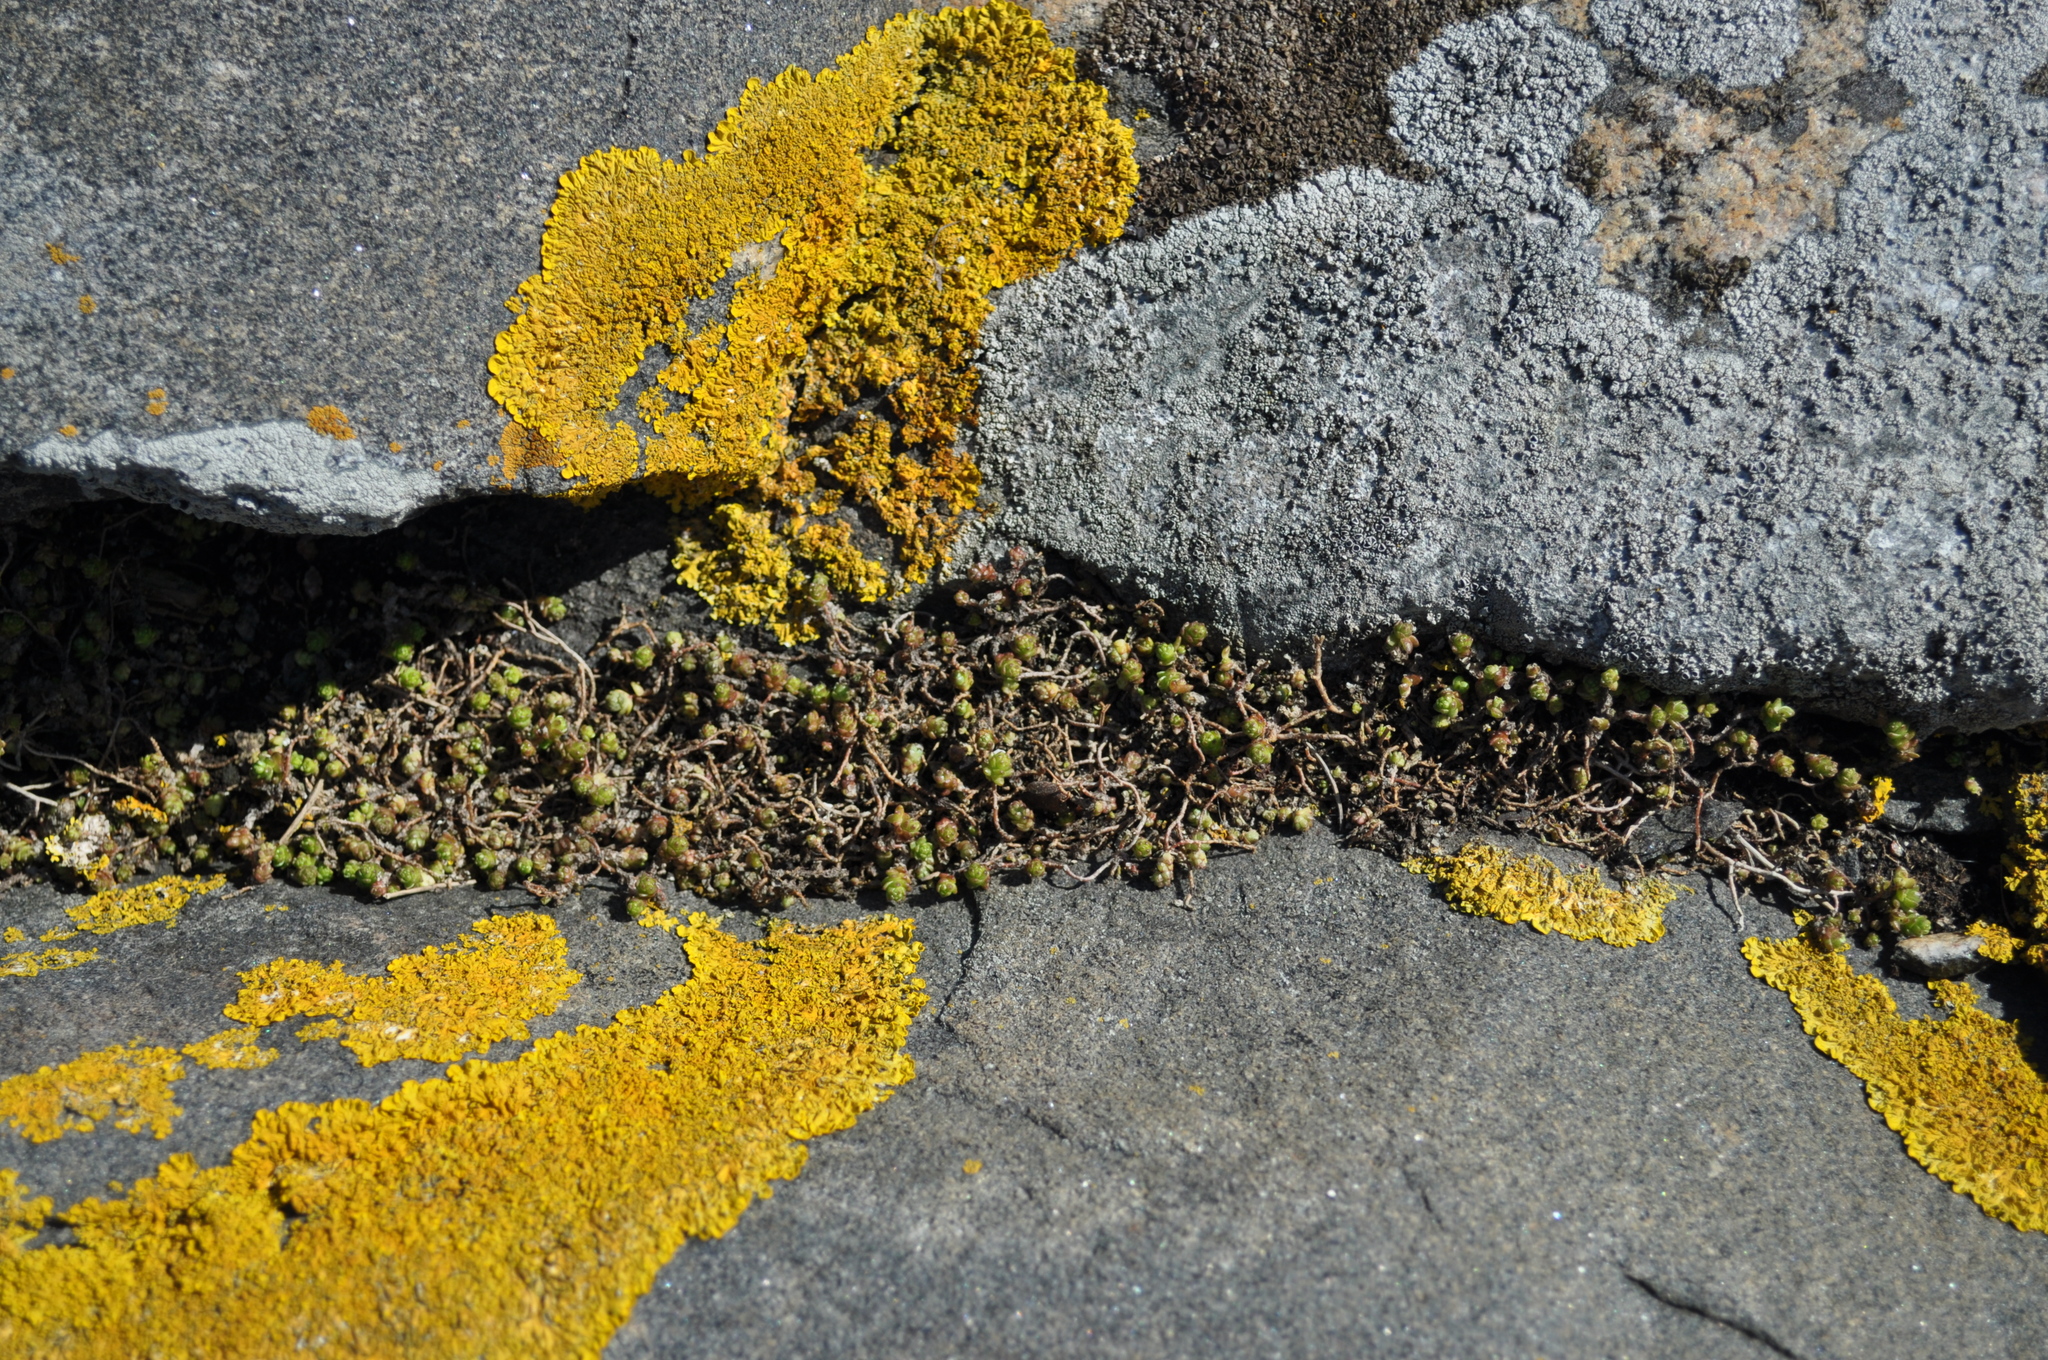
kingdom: Plantae
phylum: Tracheophyta
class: Magnoliopsida
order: Saxifragales
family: Crassulaceae
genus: Sedum
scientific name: Sedum acre
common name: Biting stonecrop
